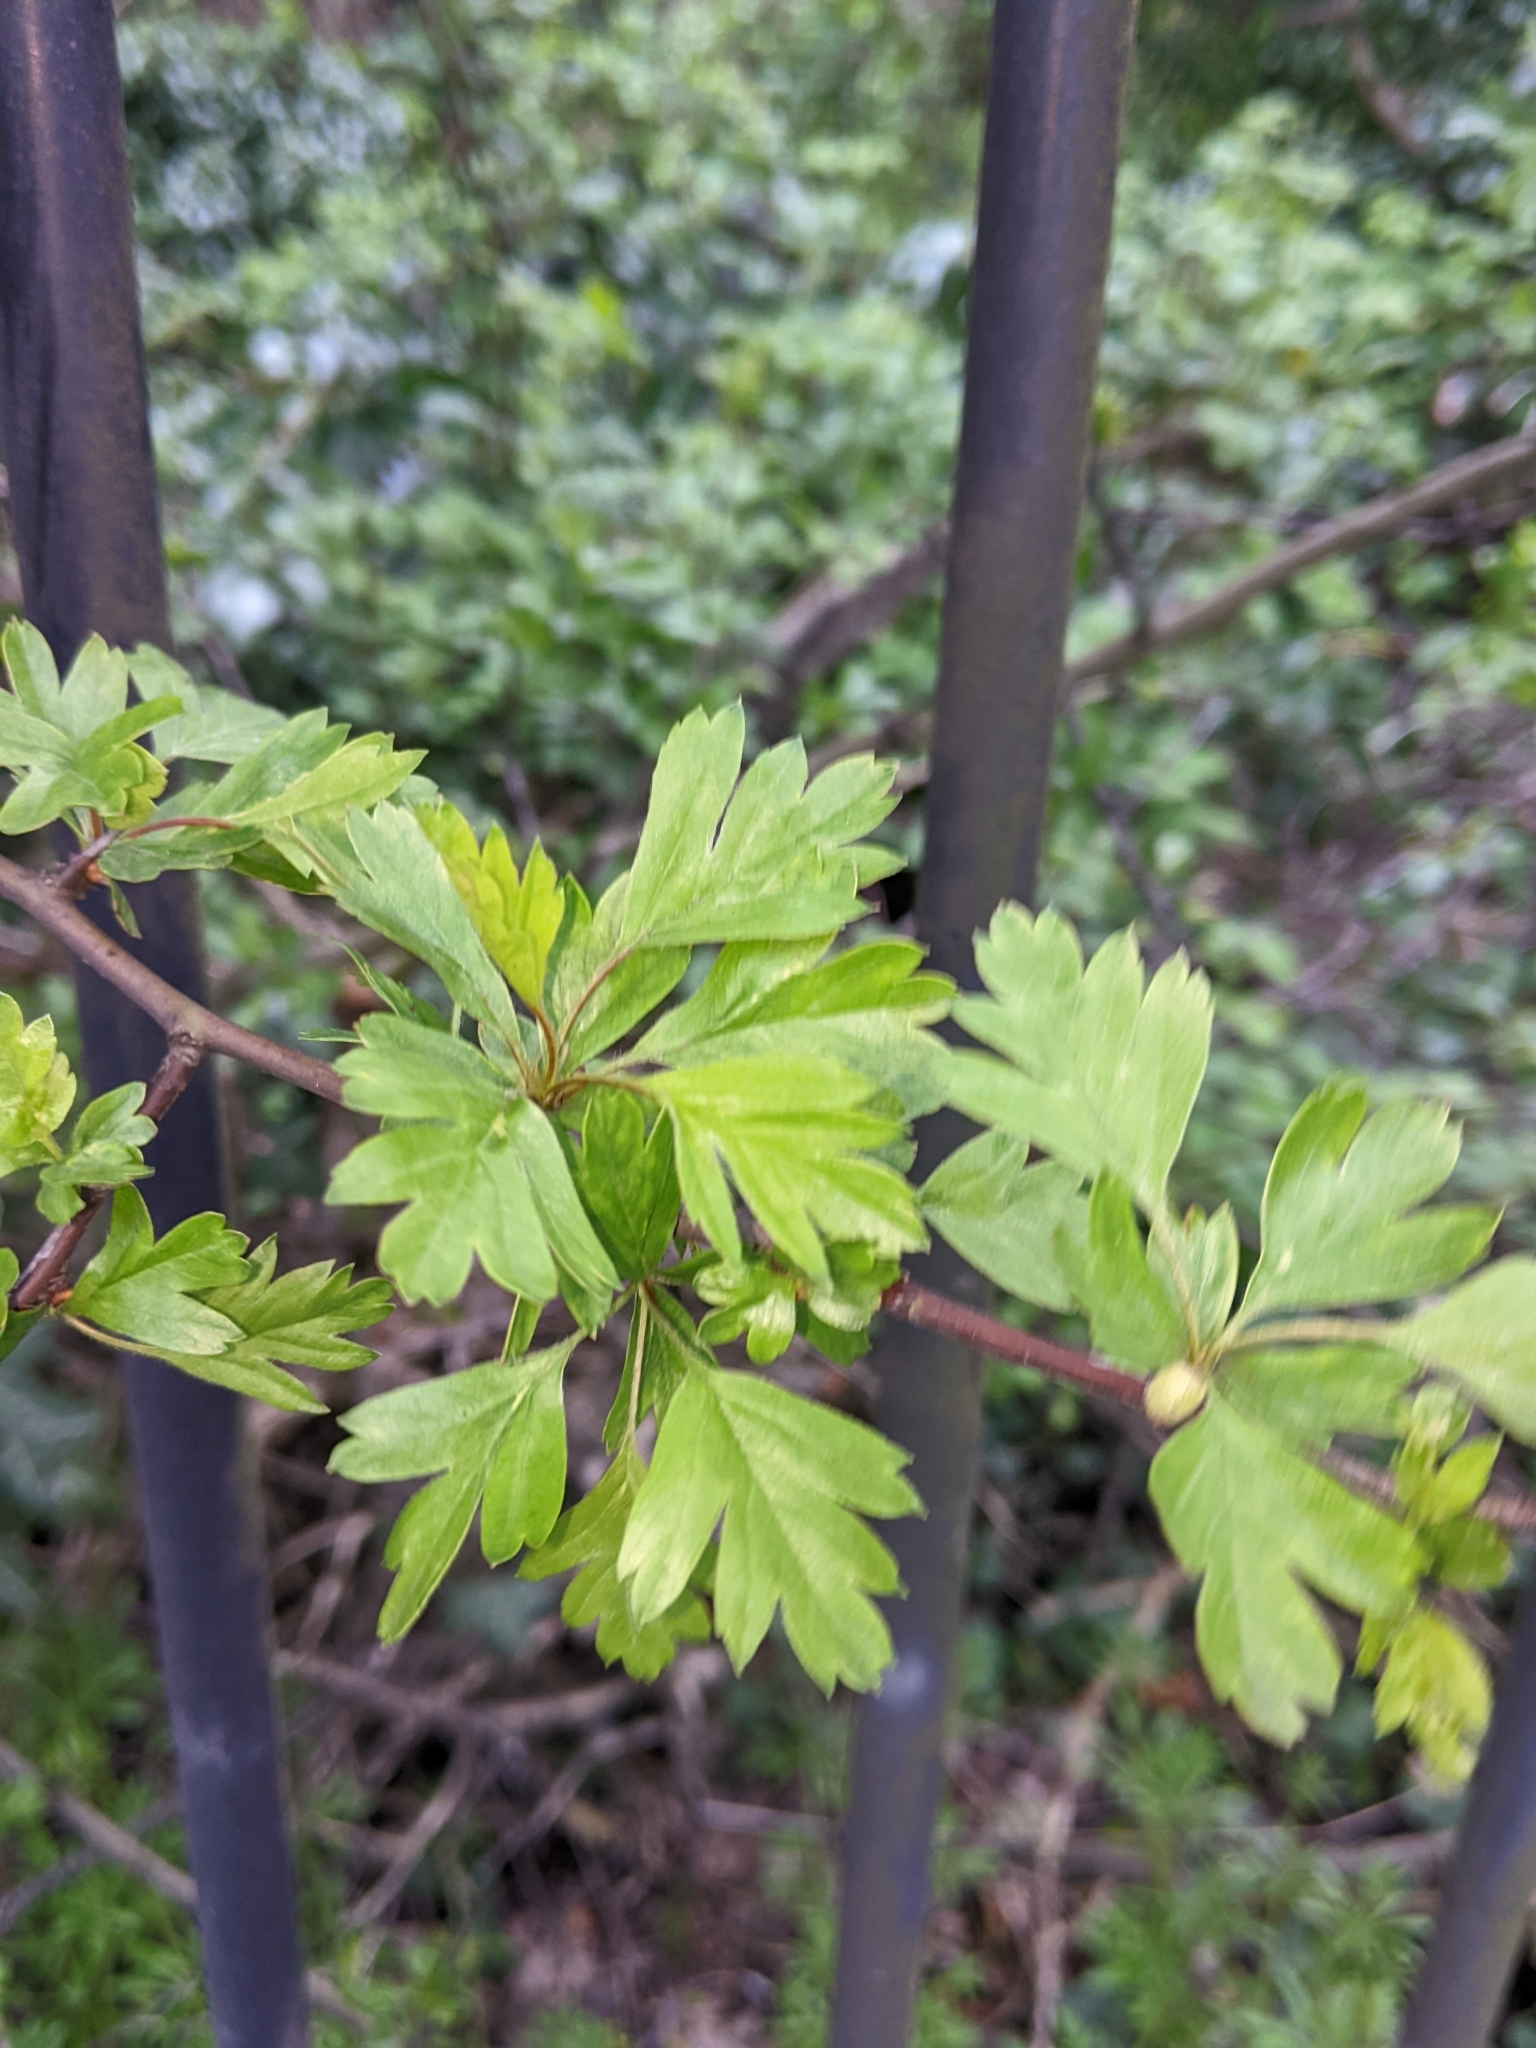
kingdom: Plantae
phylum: Tracheophyta
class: Magnoliopsida
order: Rosales
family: Rosaceae
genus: Crataegus
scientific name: Crataegus monogyna
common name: Hawthorn
